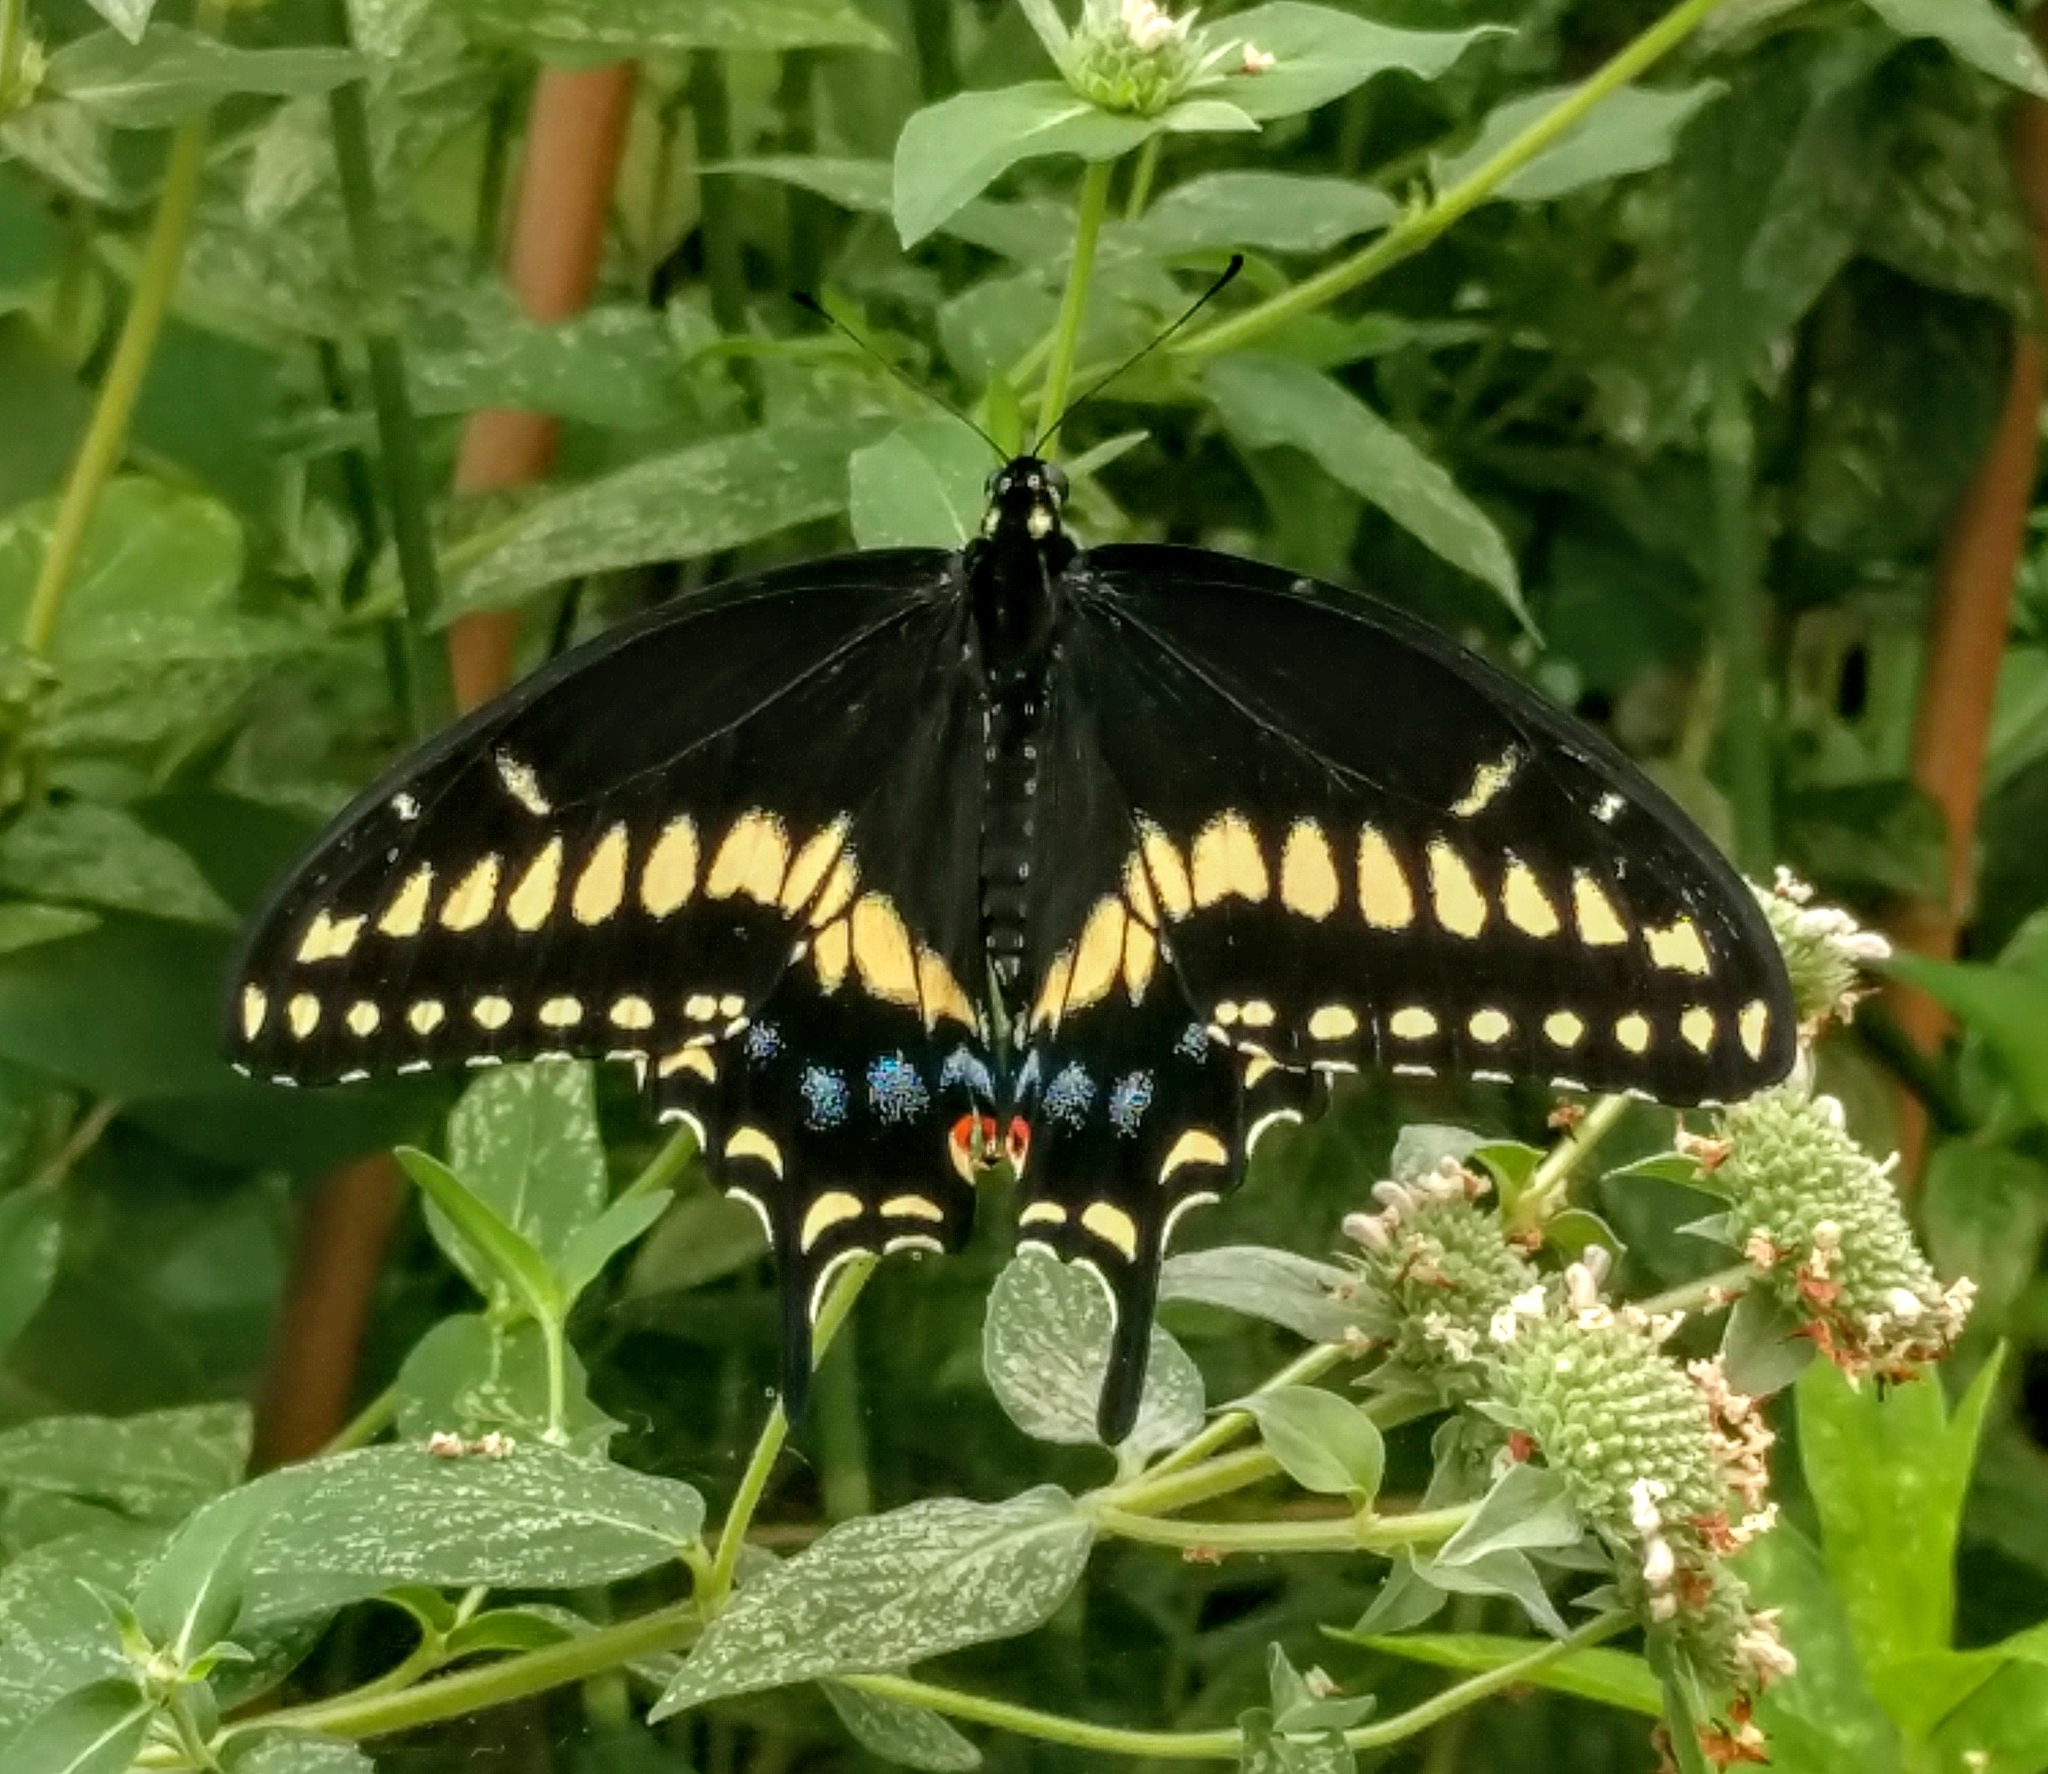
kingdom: Animalia
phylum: Arthropoda
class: Insecta
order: Lepidoptera
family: Papilionidae
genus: Papilio
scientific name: Papilio polyxenes
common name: Black swallowtail
